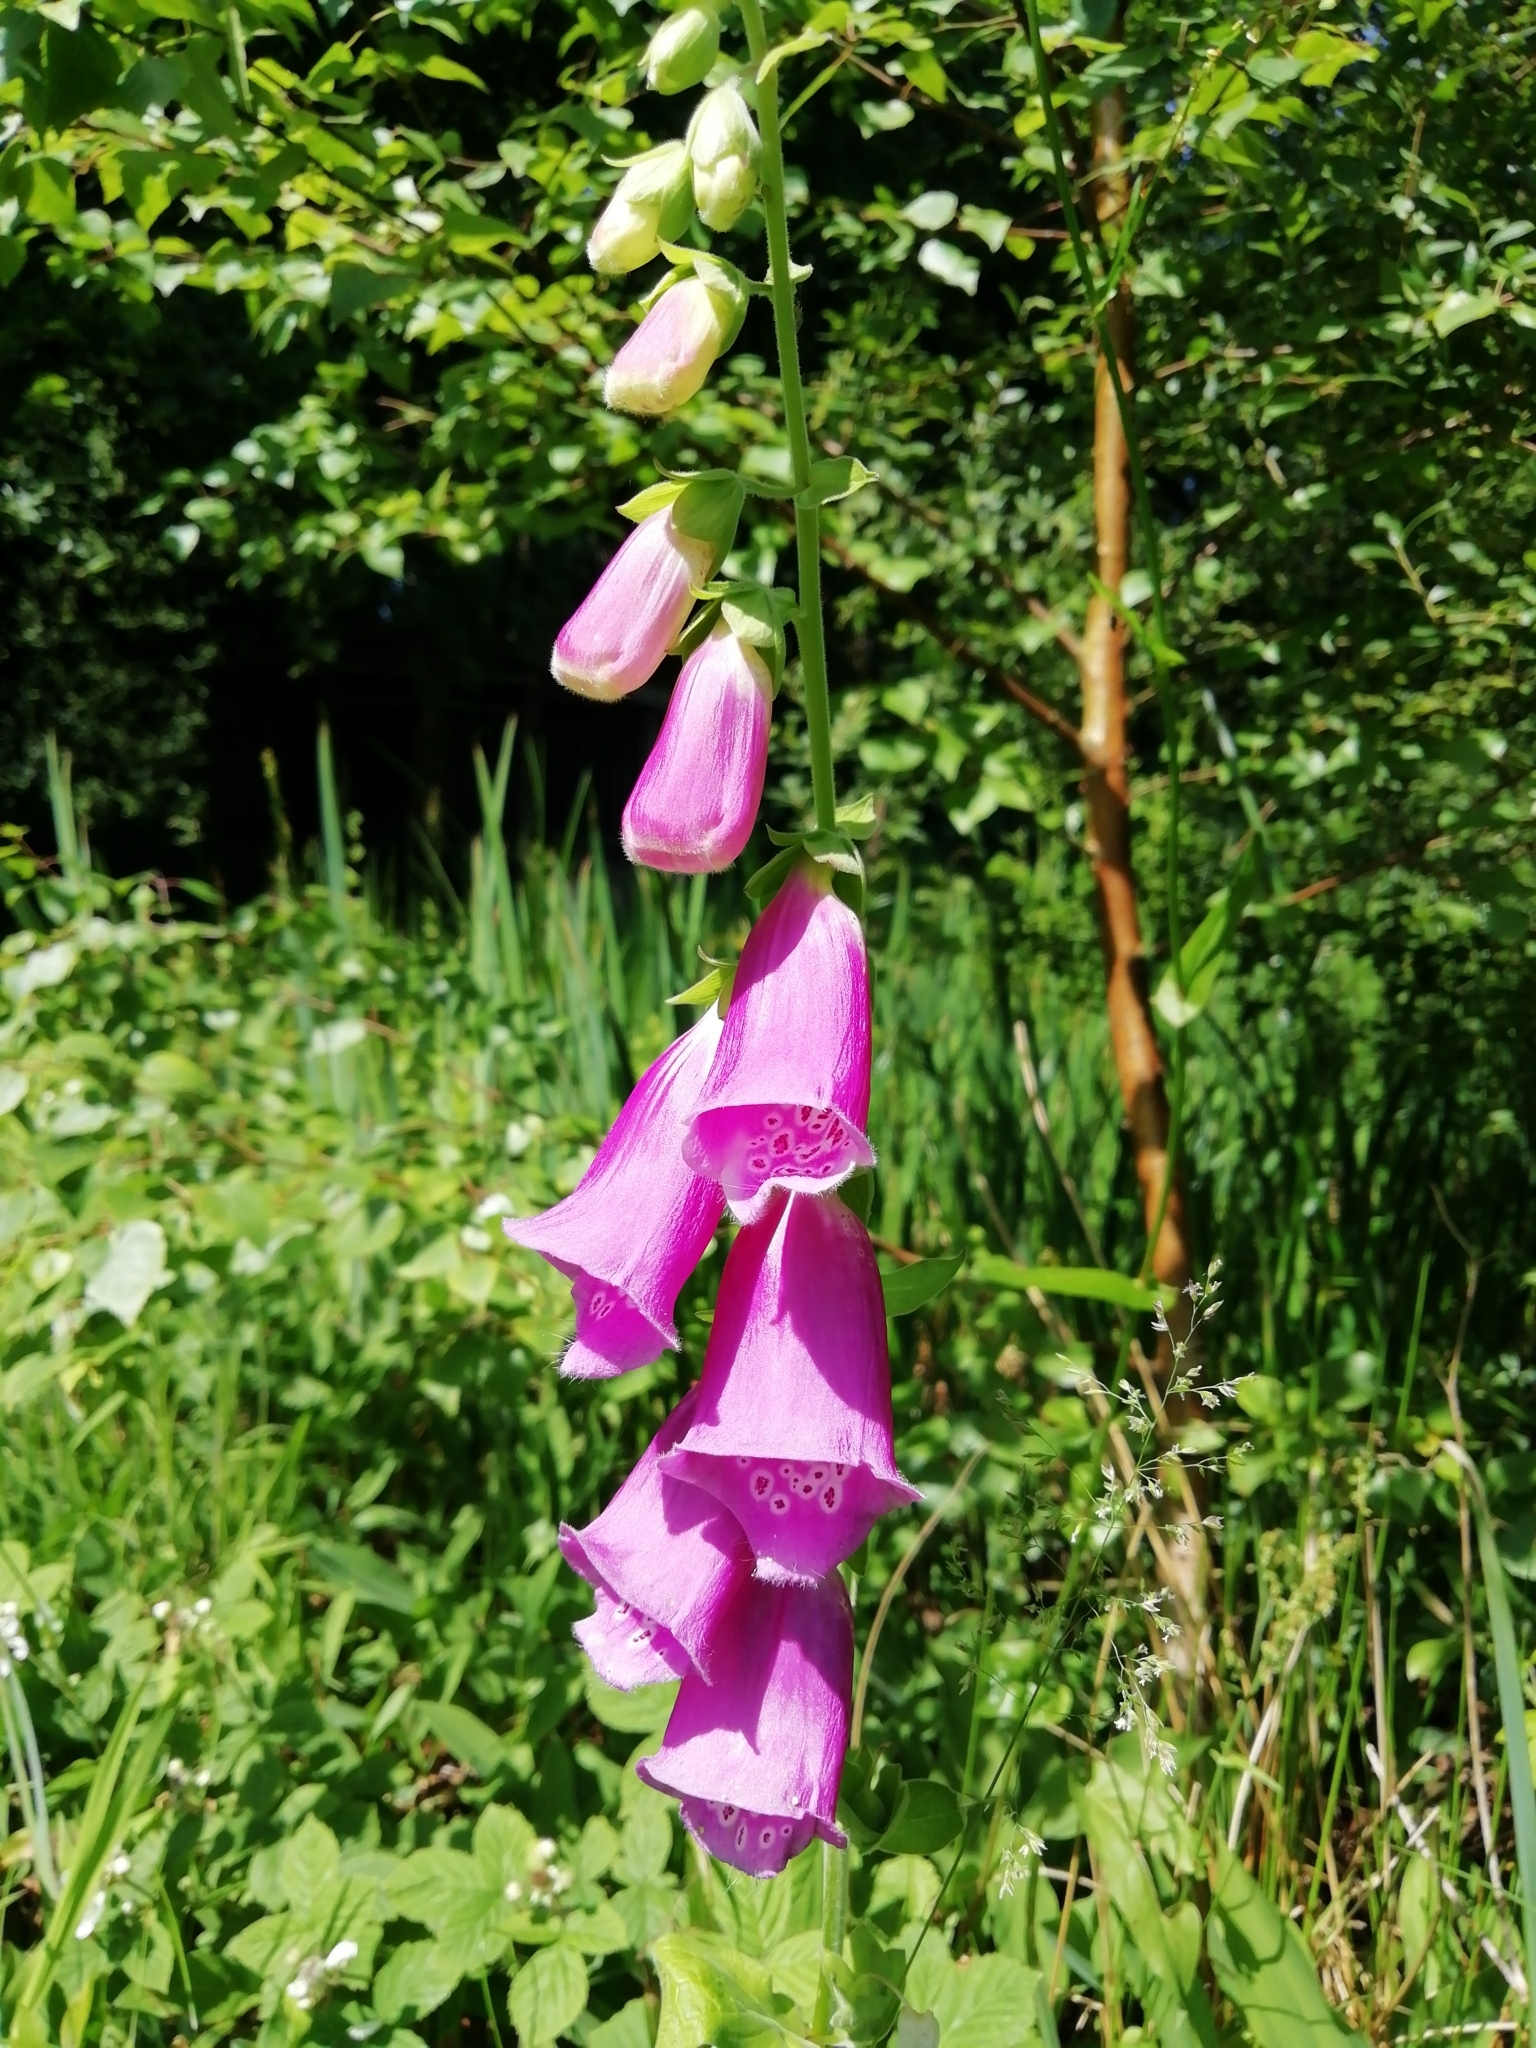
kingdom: Plantae
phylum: Tracheophyta
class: Magnoliopsida
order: Lamiales
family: Plantaginaceae
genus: Digitalis
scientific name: Digitalis purpurea
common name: Foxglove
